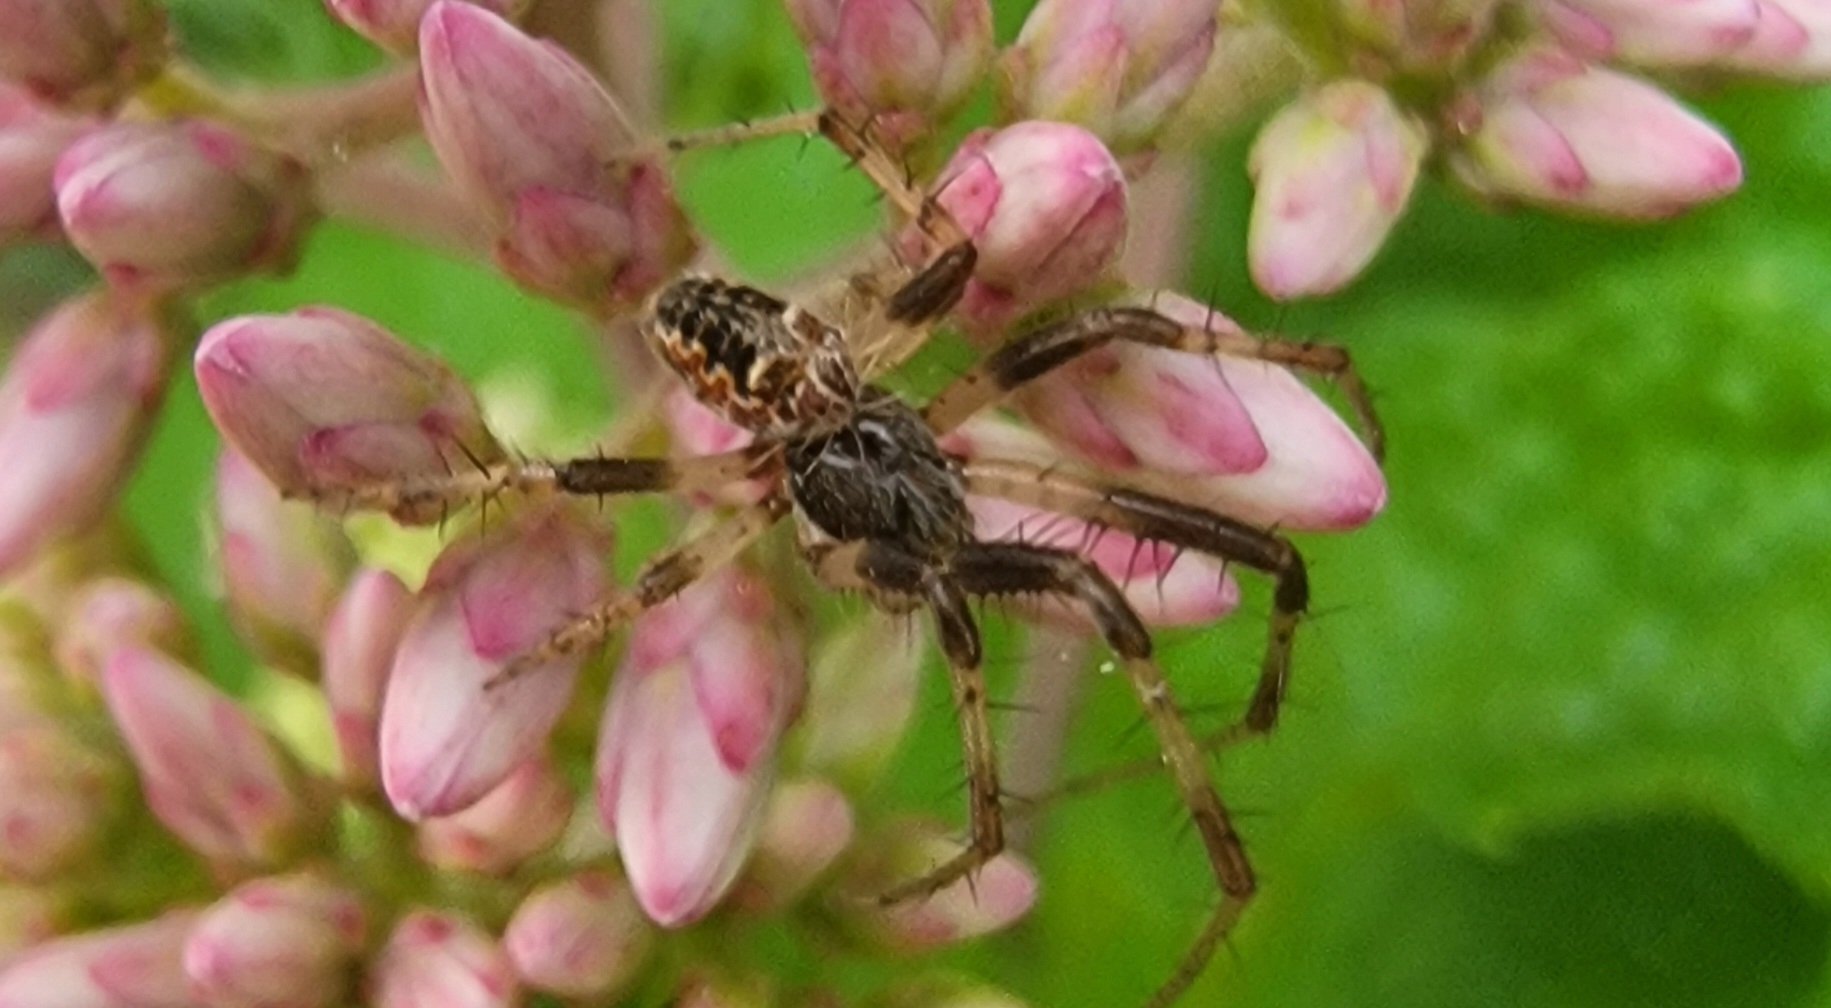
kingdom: Animalia
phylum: Arthropoda
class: Arachnida
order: Araneae
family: Araneidae
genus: Metepeira
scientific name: Metepeira labyrinthea
